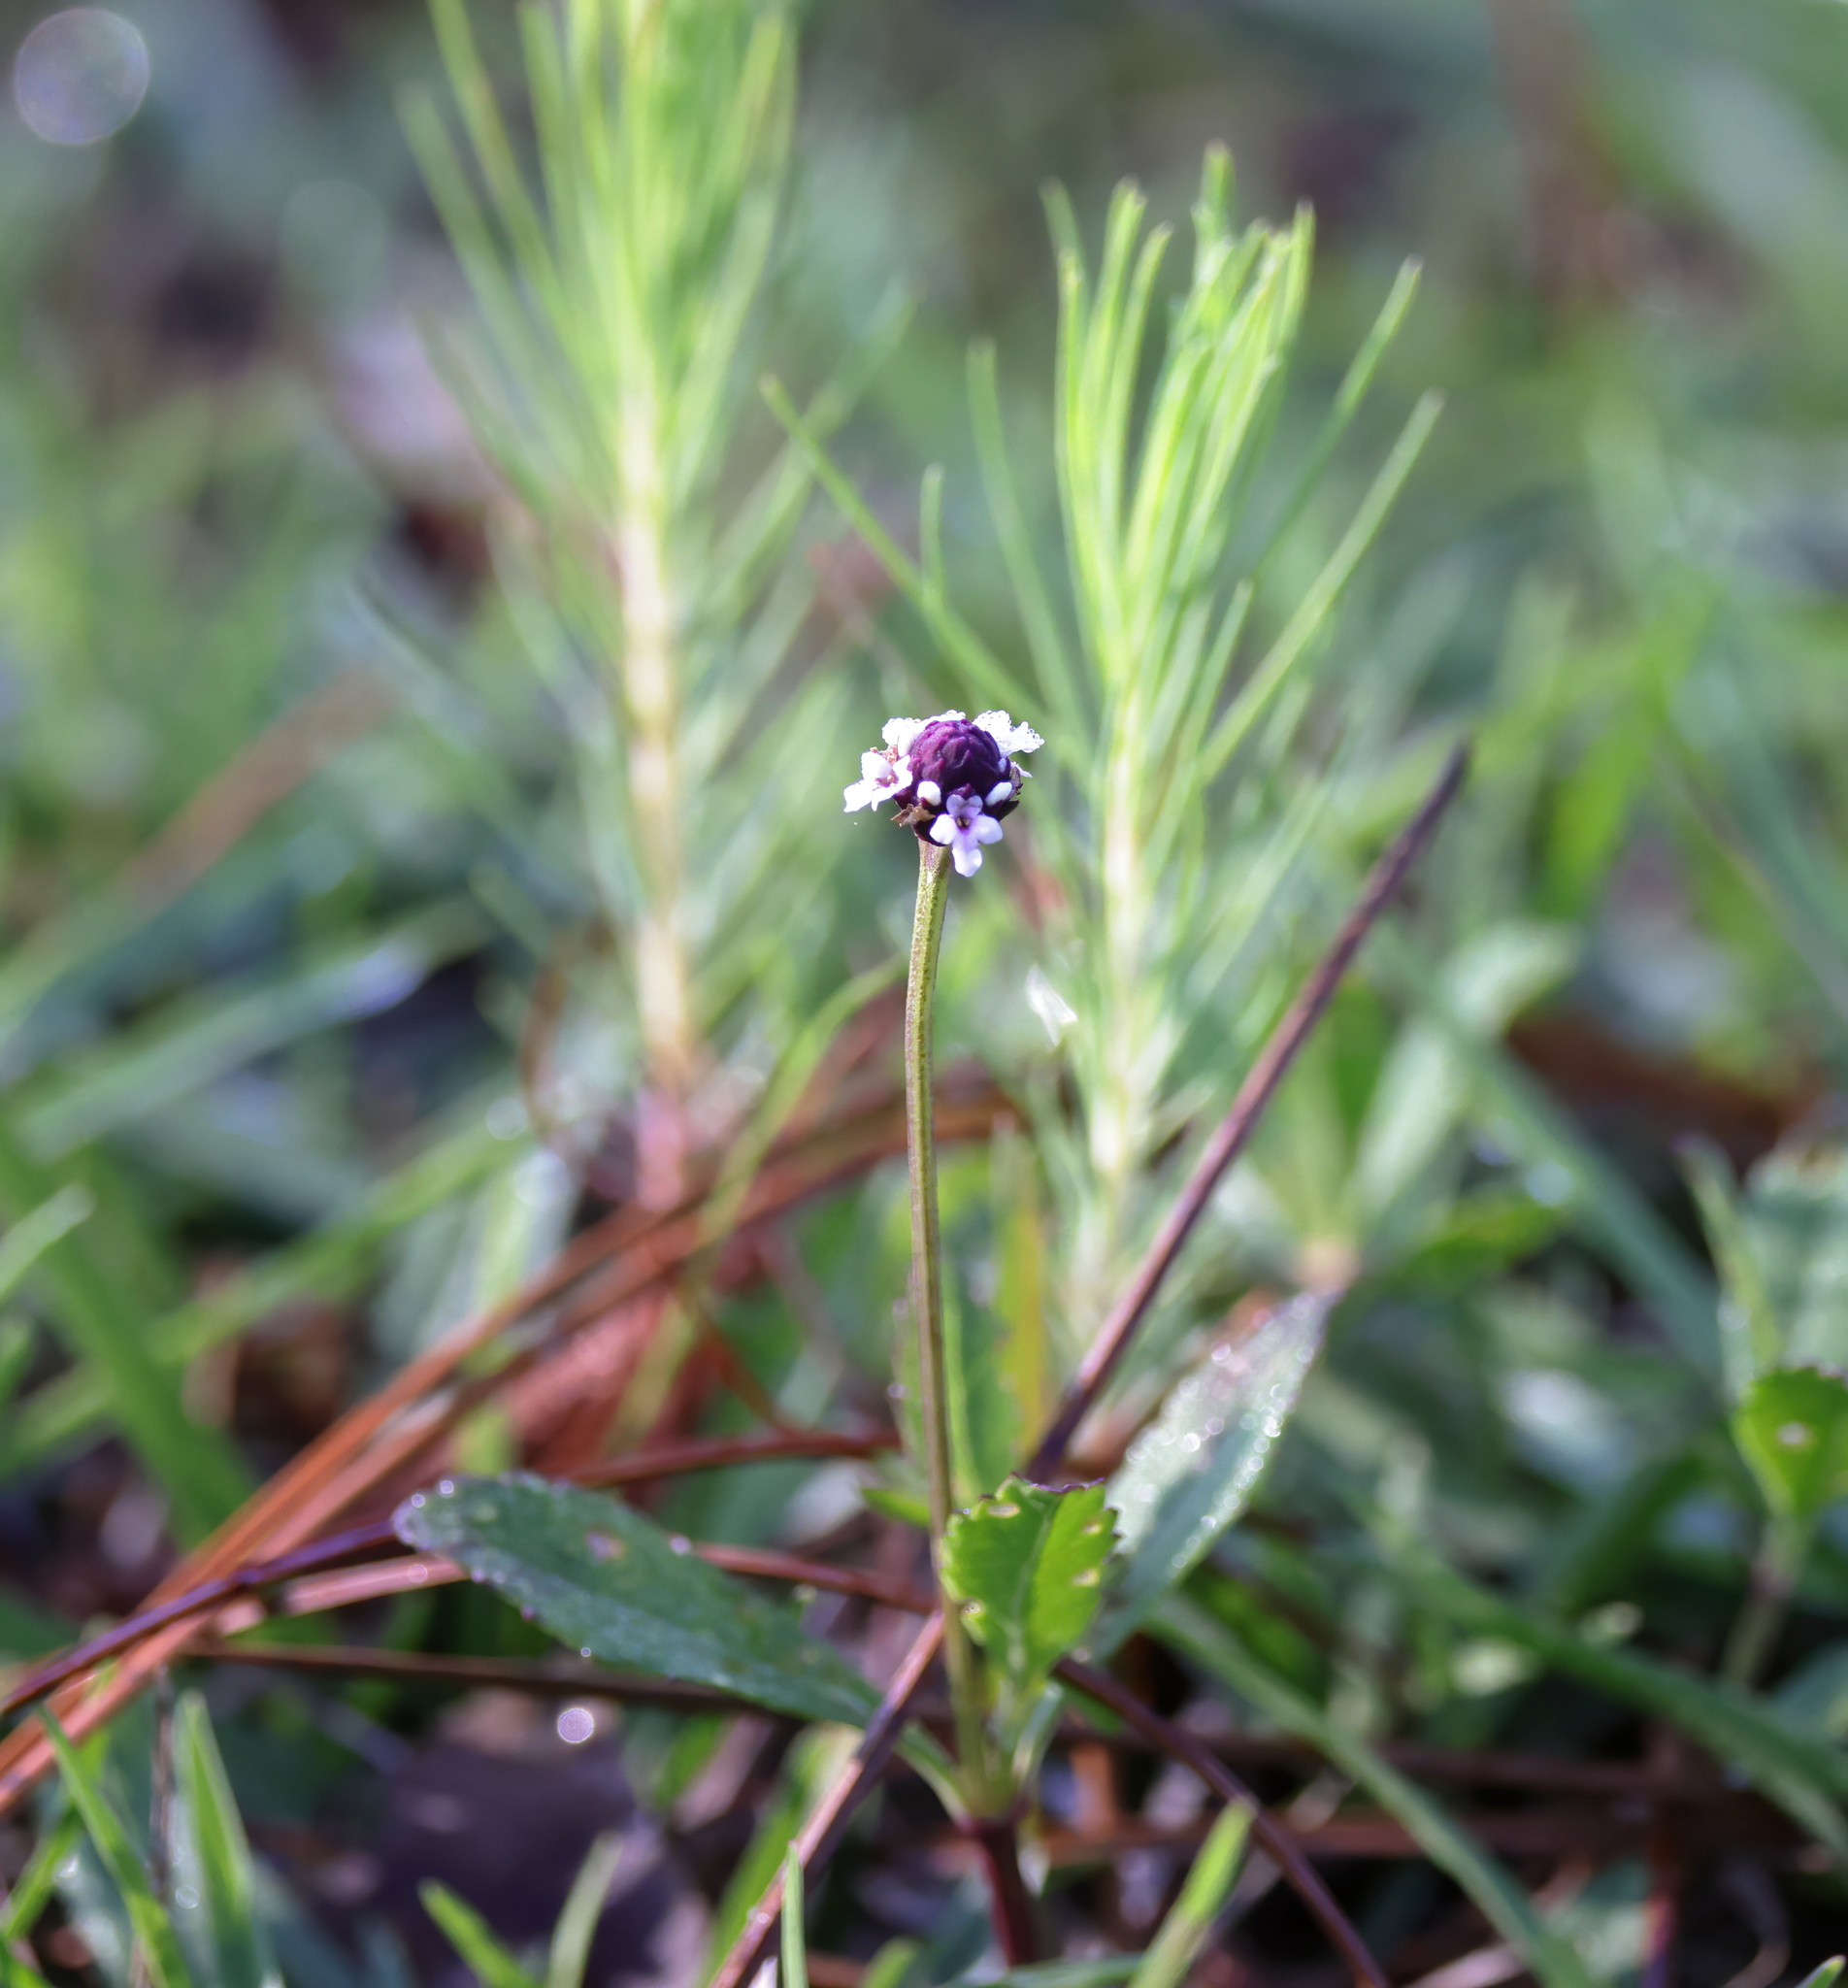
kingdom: Plantae
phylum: Tracheophyta
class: Magnoliopsida
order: Lamiales
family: Verbenaceae
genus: Phyla
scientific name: Phyla nodiflora
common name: Frogfruit
